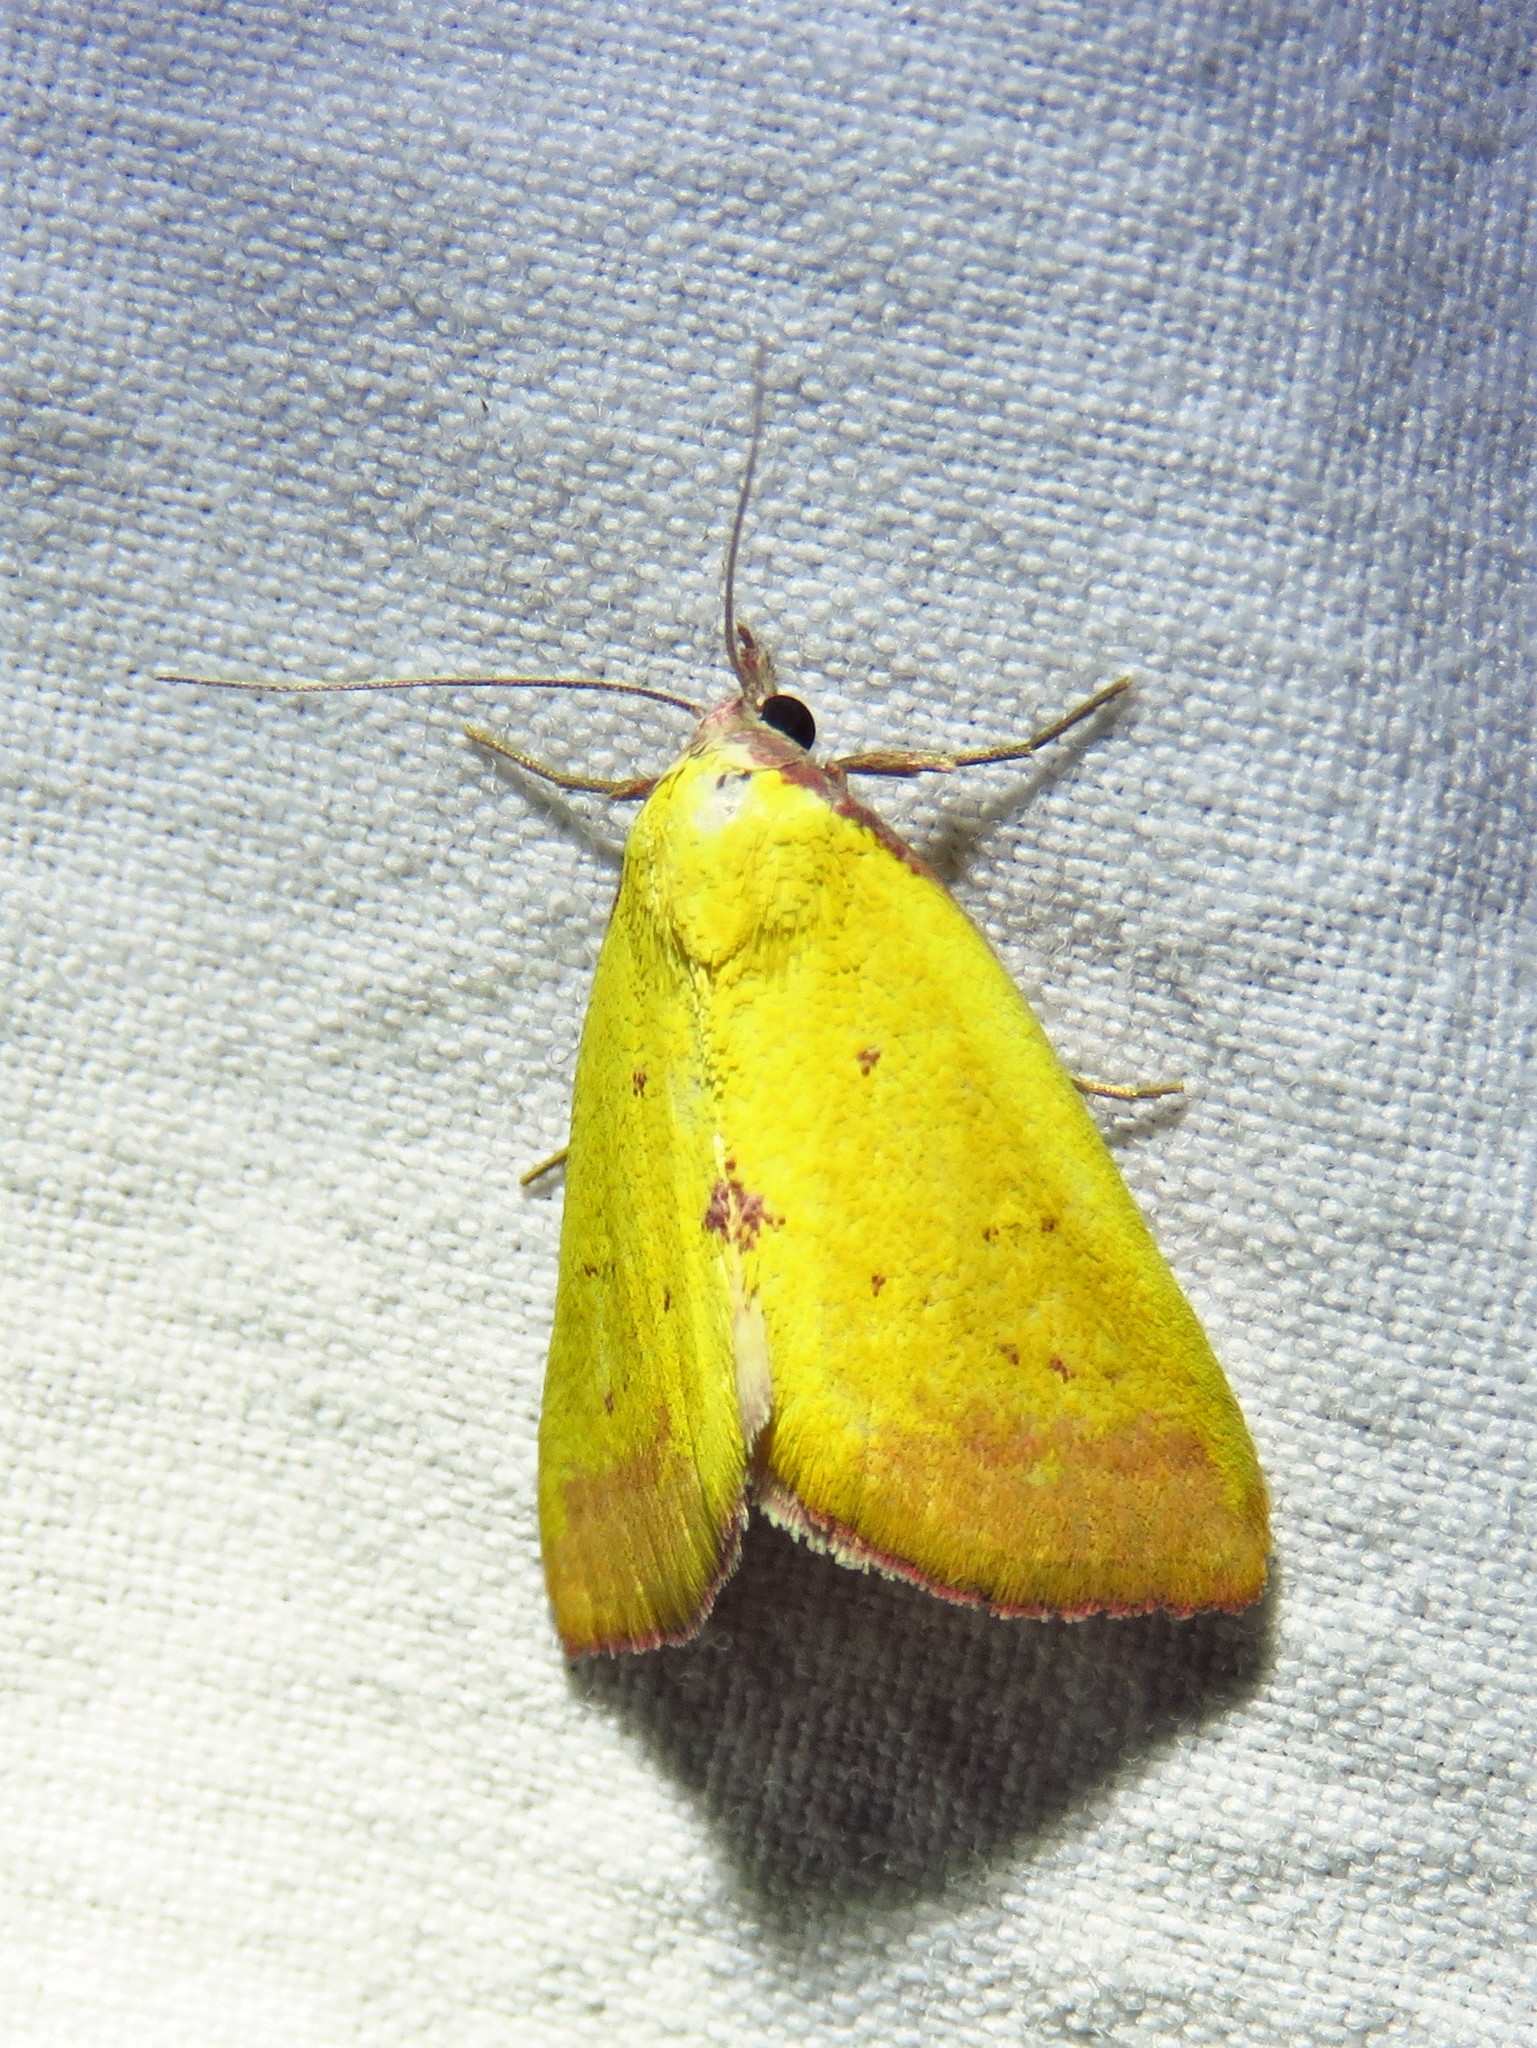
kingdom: Animalia
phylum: Arthropoda
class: Insecta
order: Lepidoptera
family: Erebidae
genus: Phytometra
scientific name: Phytometra orgiae
